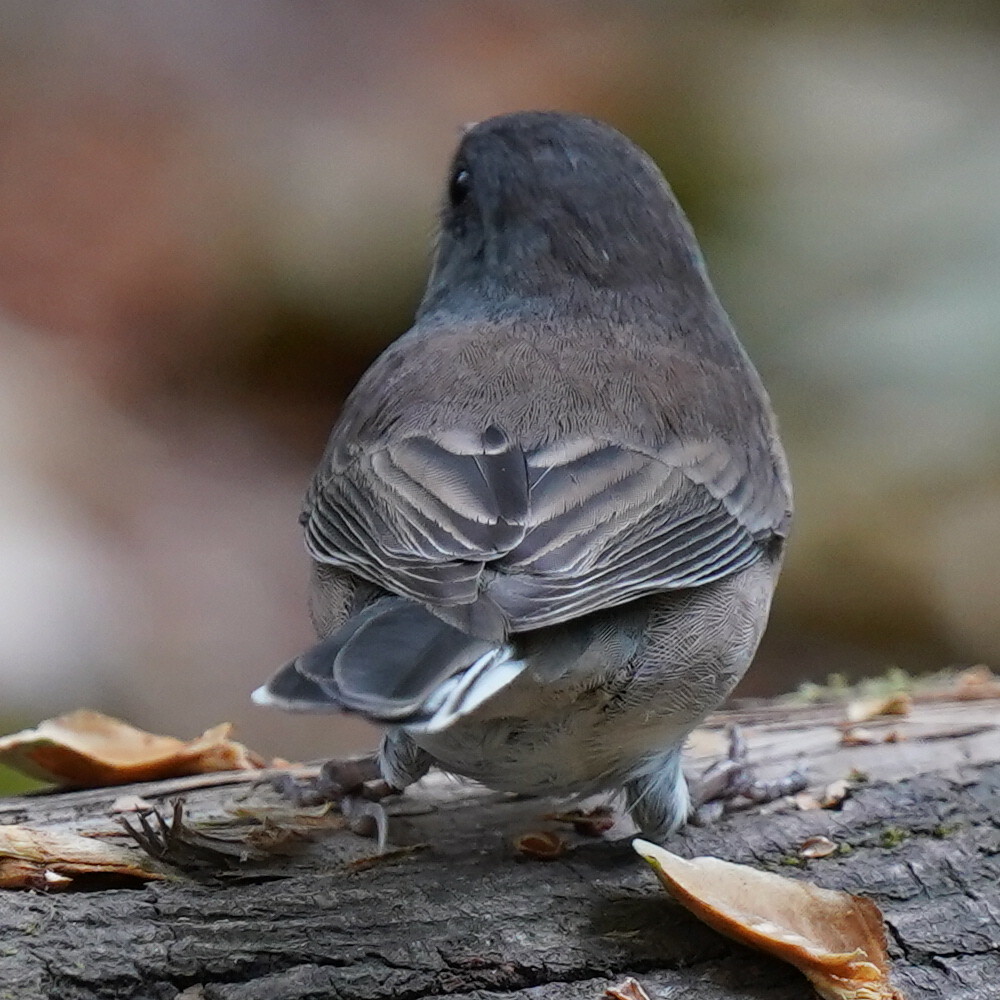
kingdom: Animalia
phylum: Chordata
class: Aves
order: Passeriformes
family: Passerellidae
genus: Junco
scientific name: Junco hyemalis
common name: Dark-eyed junco
